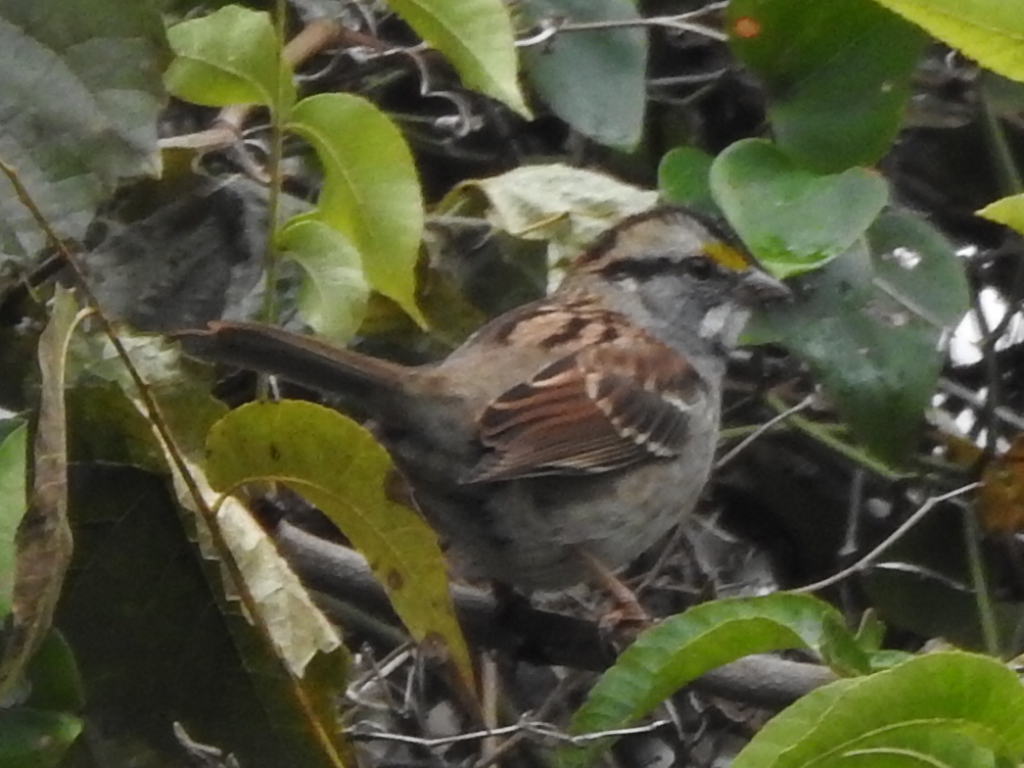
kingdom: Animalia
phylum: Chordata
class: Aves
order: Passeriformes
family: Passerellidae
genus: Zonotrichia
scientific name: Zonotrichia albicollis
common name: White-throated sparrow
